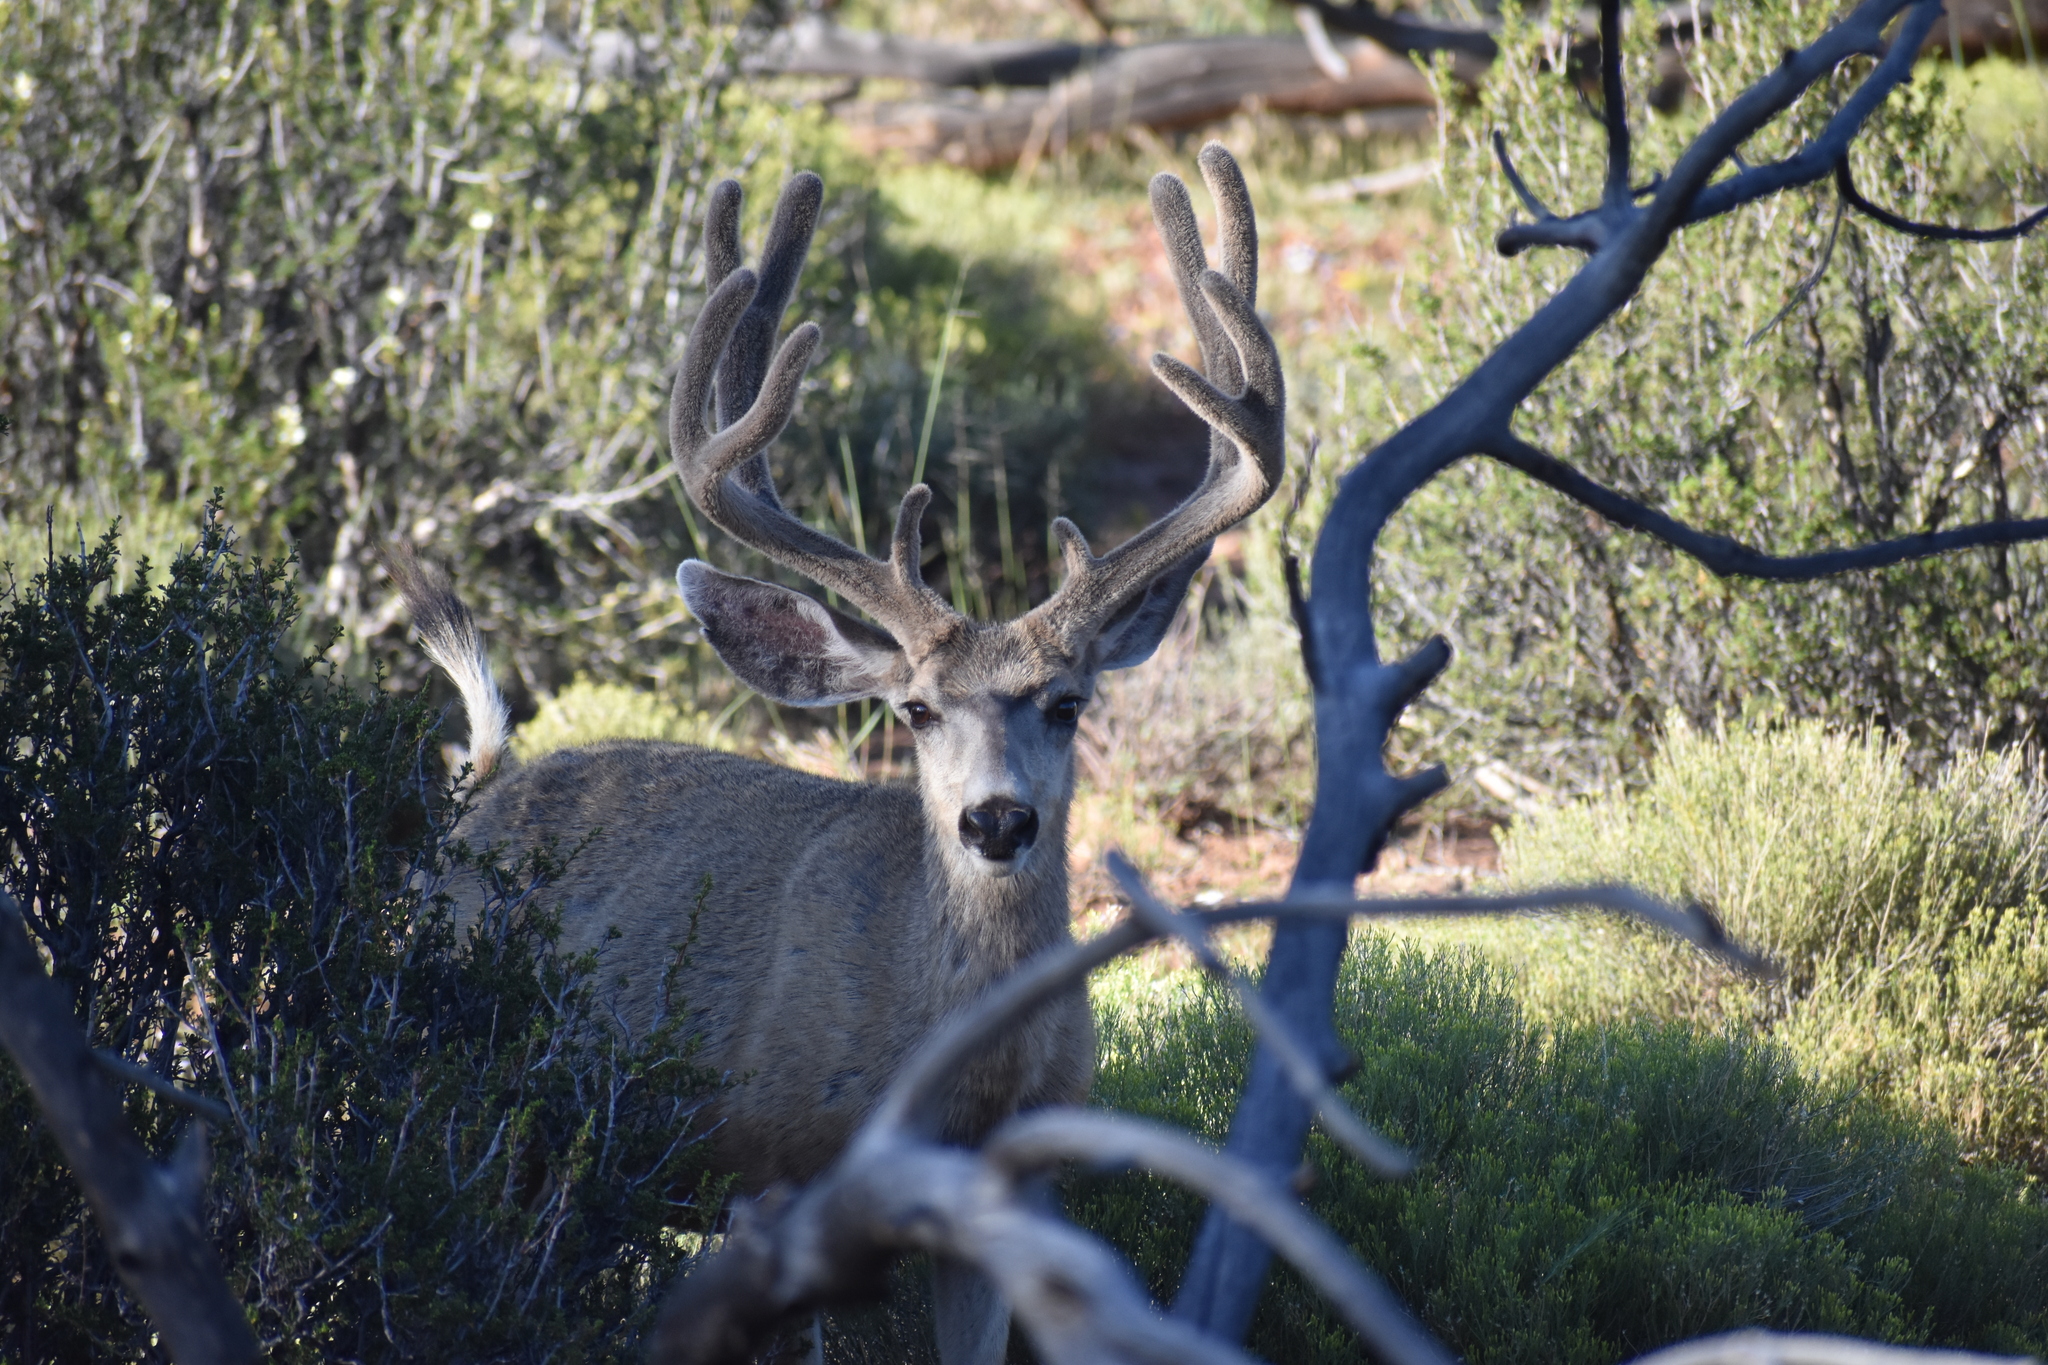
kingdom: Animalia
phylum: Chordata
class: Mammalia
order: Artiodactyla
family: Cervidae
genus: Odocoileus
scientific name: Odocoileus hemionus
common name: Mule deer
